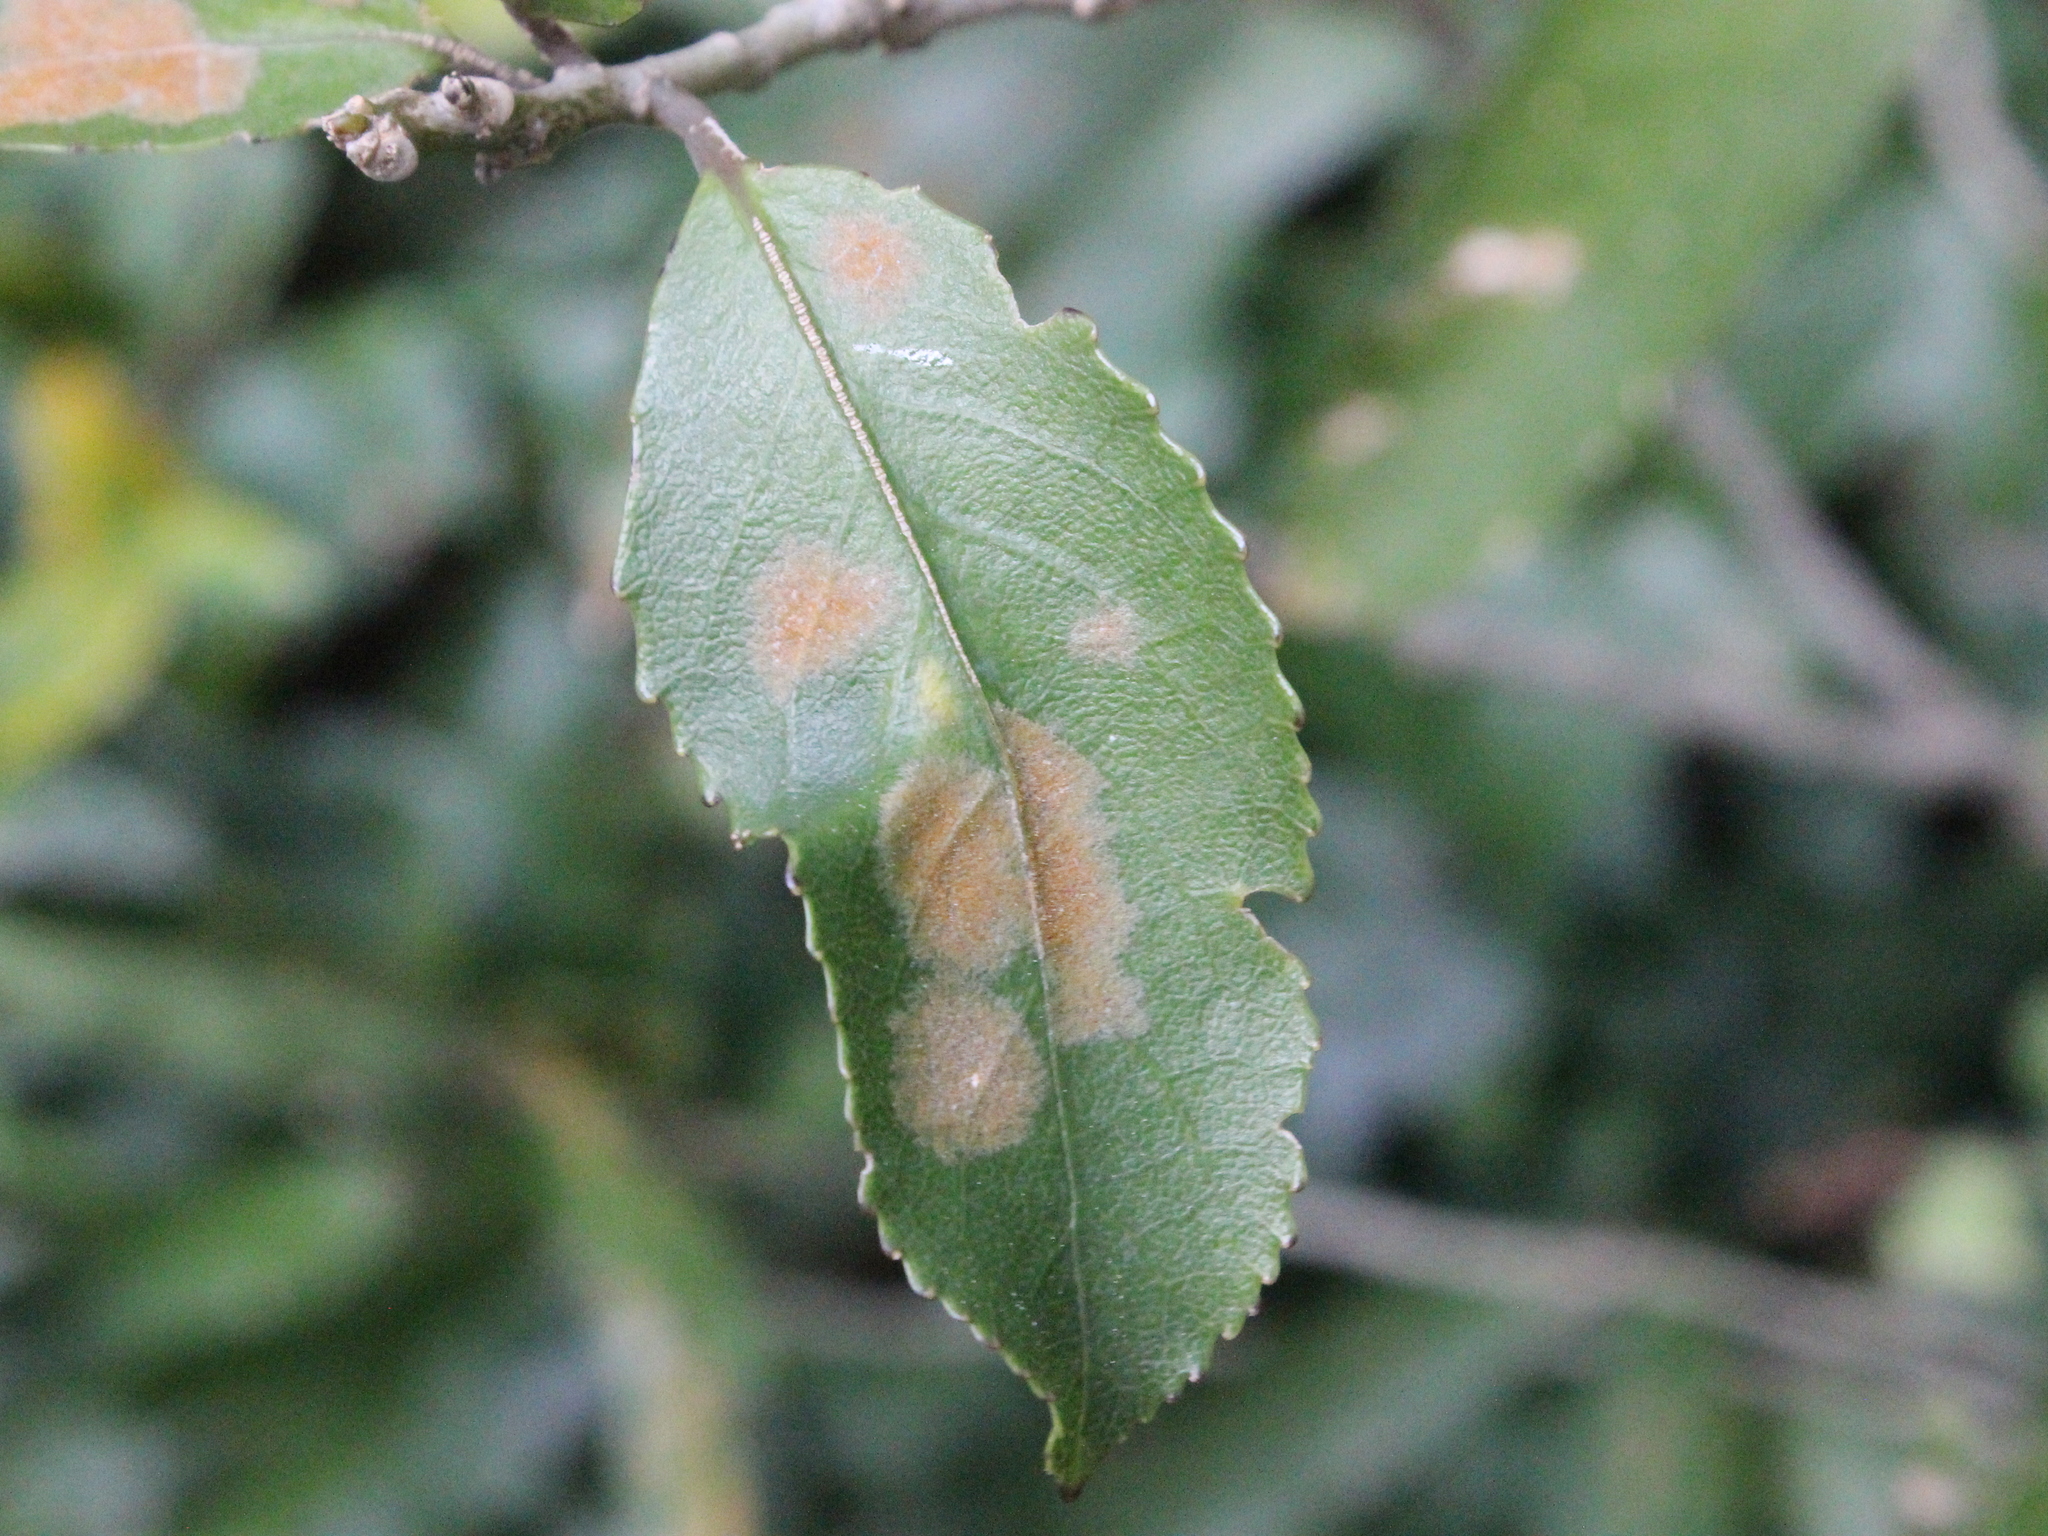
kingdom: Plantae
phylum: Tracheophyta
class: Magnoliopsida
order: Malpighiales
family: Violaceae
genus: Melicytus
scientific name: Melicytus ramiflorus
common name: Mahoe
